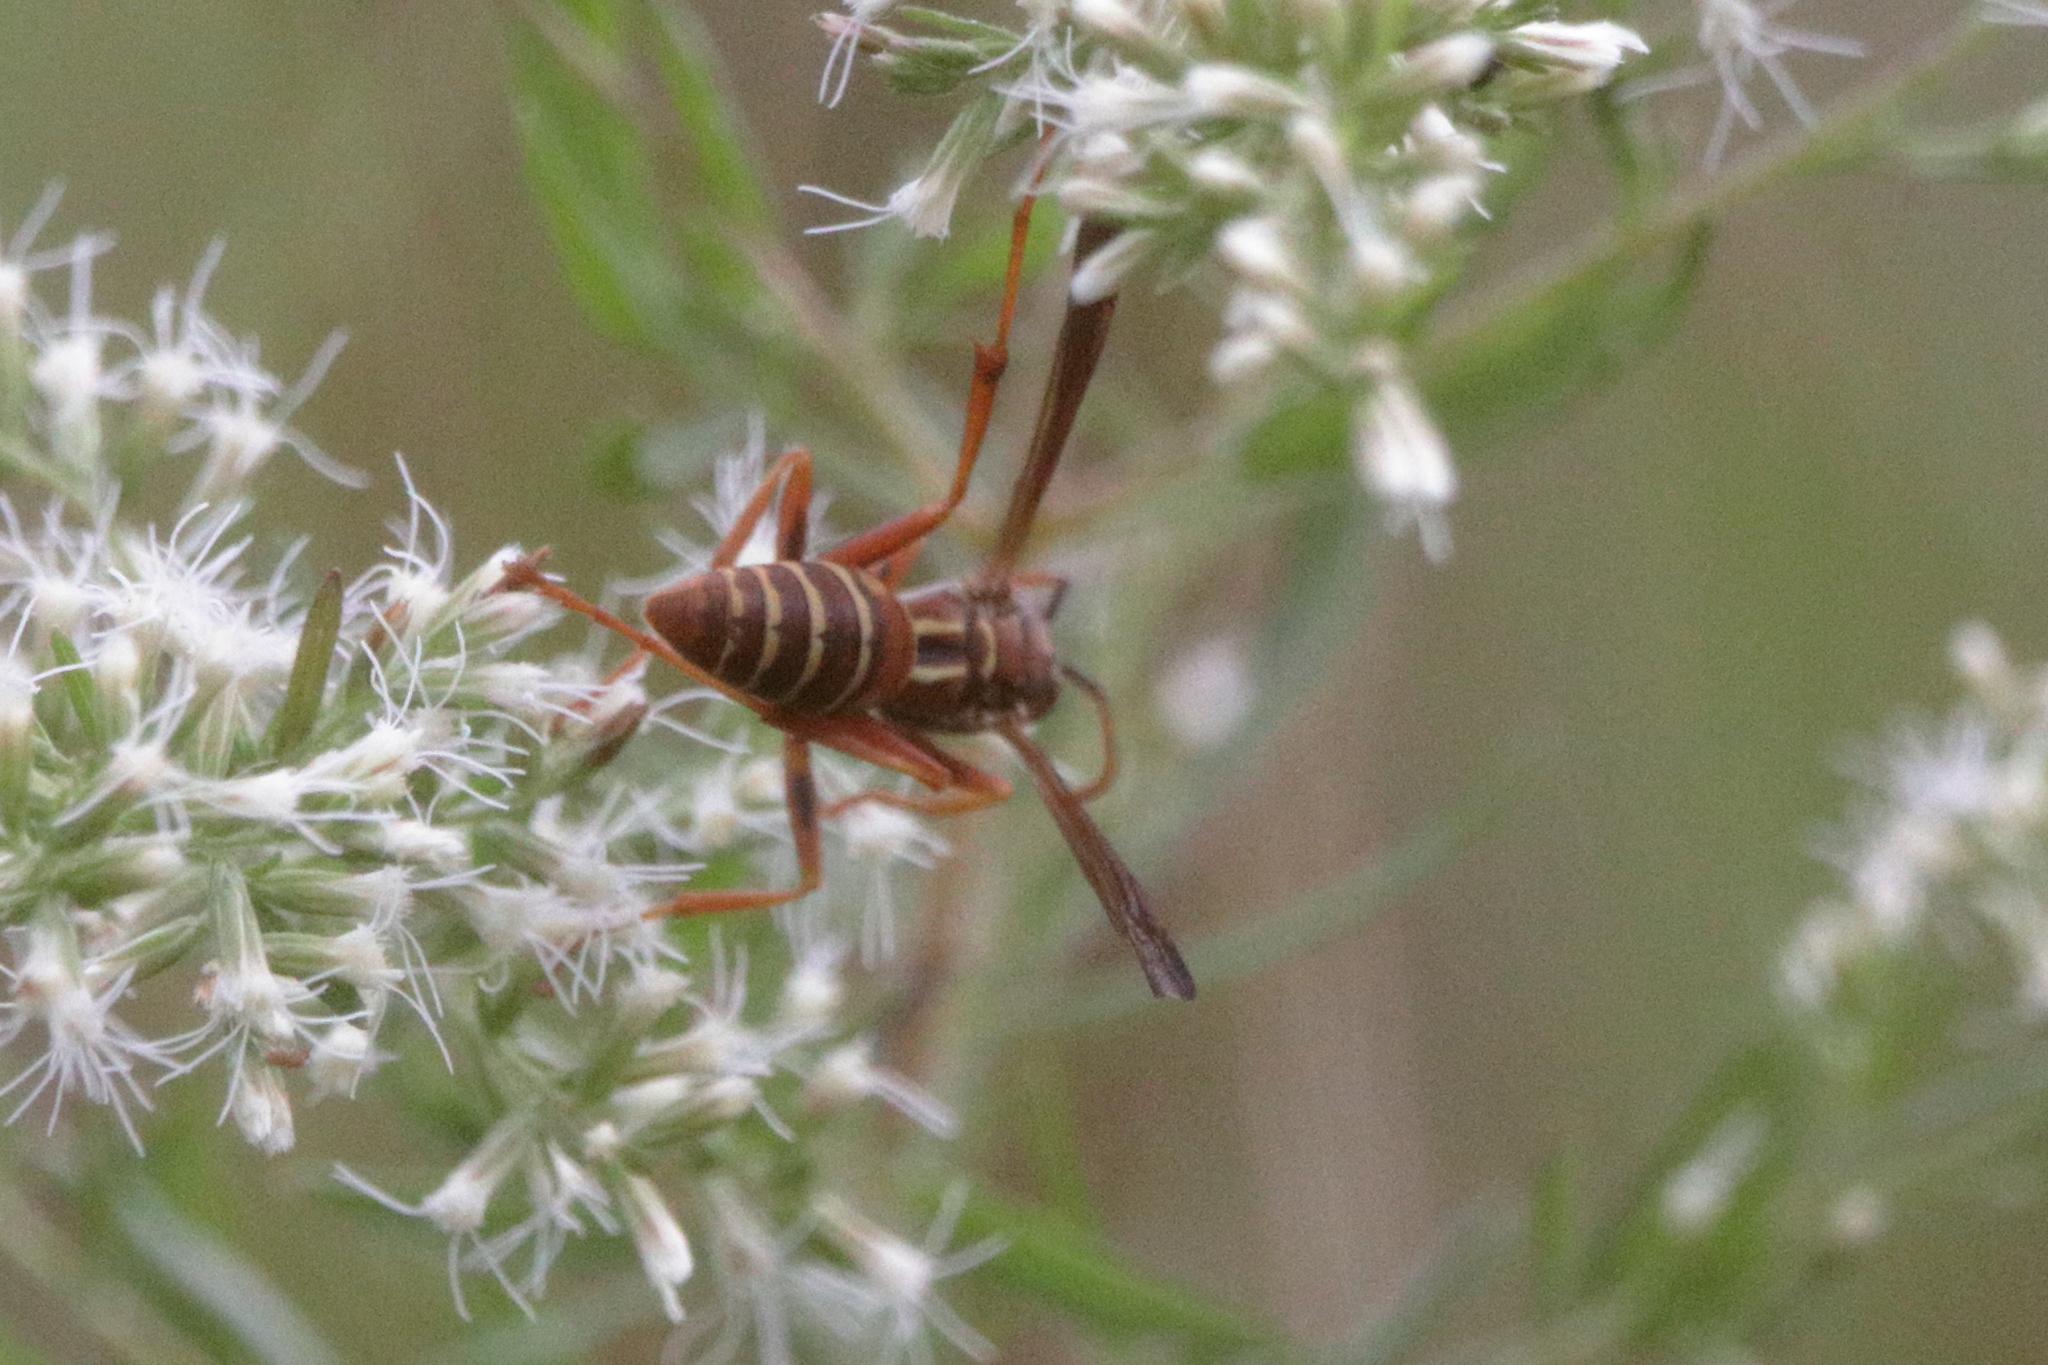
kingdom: Animalia
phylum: Arthropoda
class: Insecta
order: Hymenoptera
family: Eumenidae
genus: Polistes
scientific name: Polistes bellicosus
